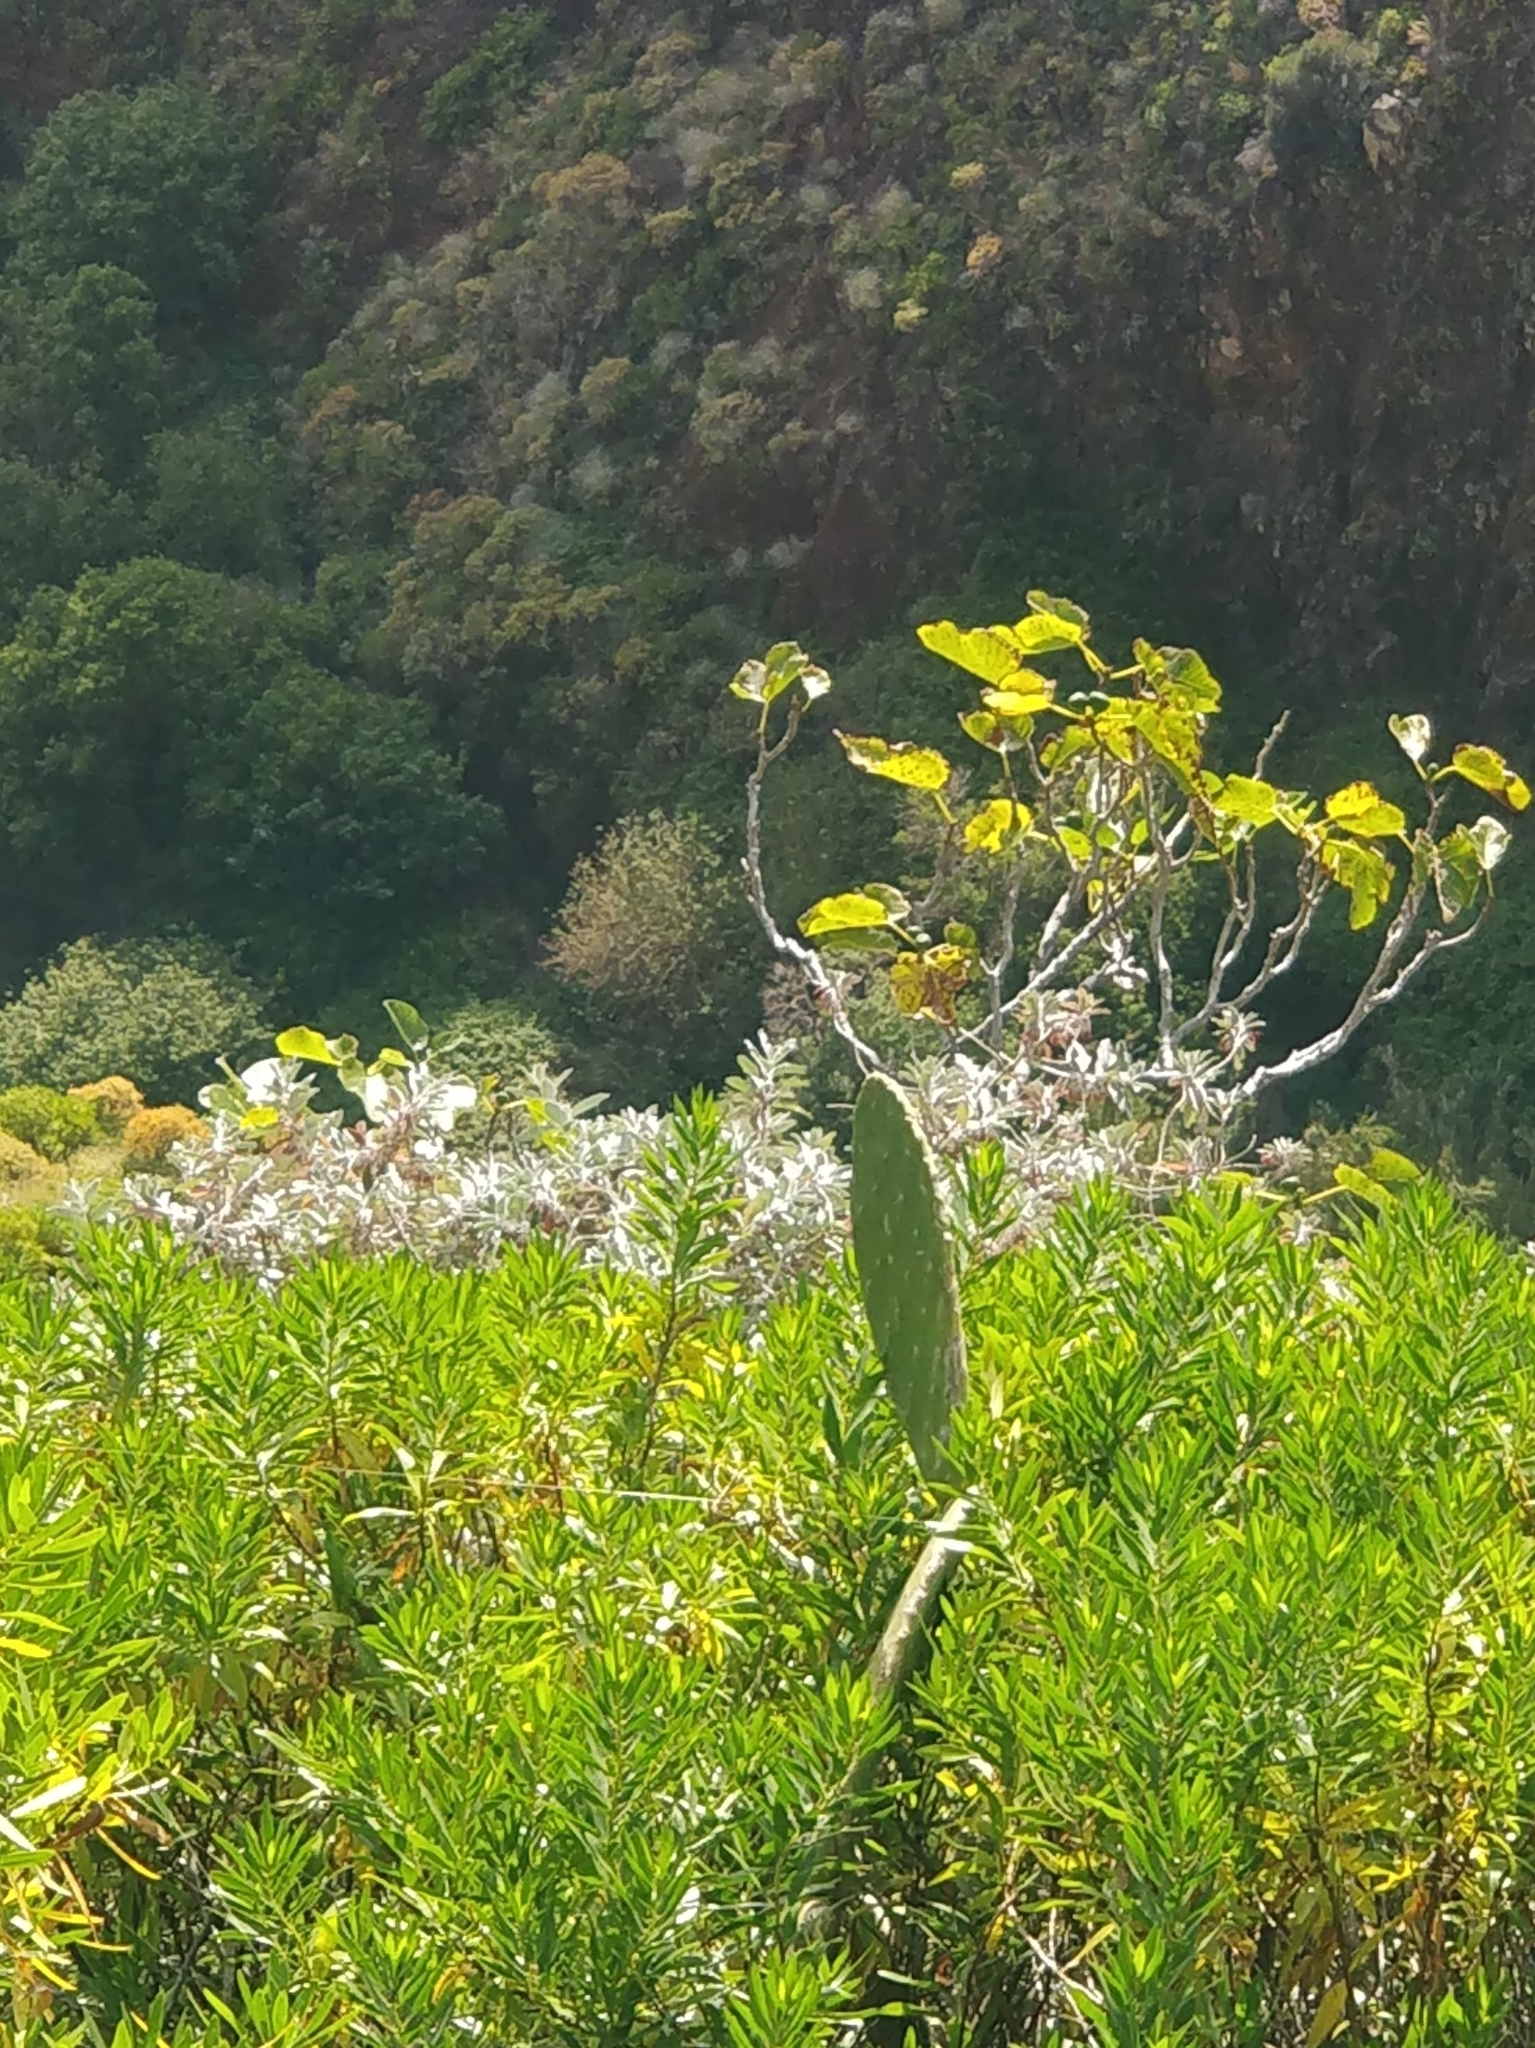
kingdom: Plantae
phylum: Tracheophyta
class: Magnoliopsida
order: Lamiales
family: Lamiaceae
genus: Teucrium
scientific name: Teucrium heterophyllum
